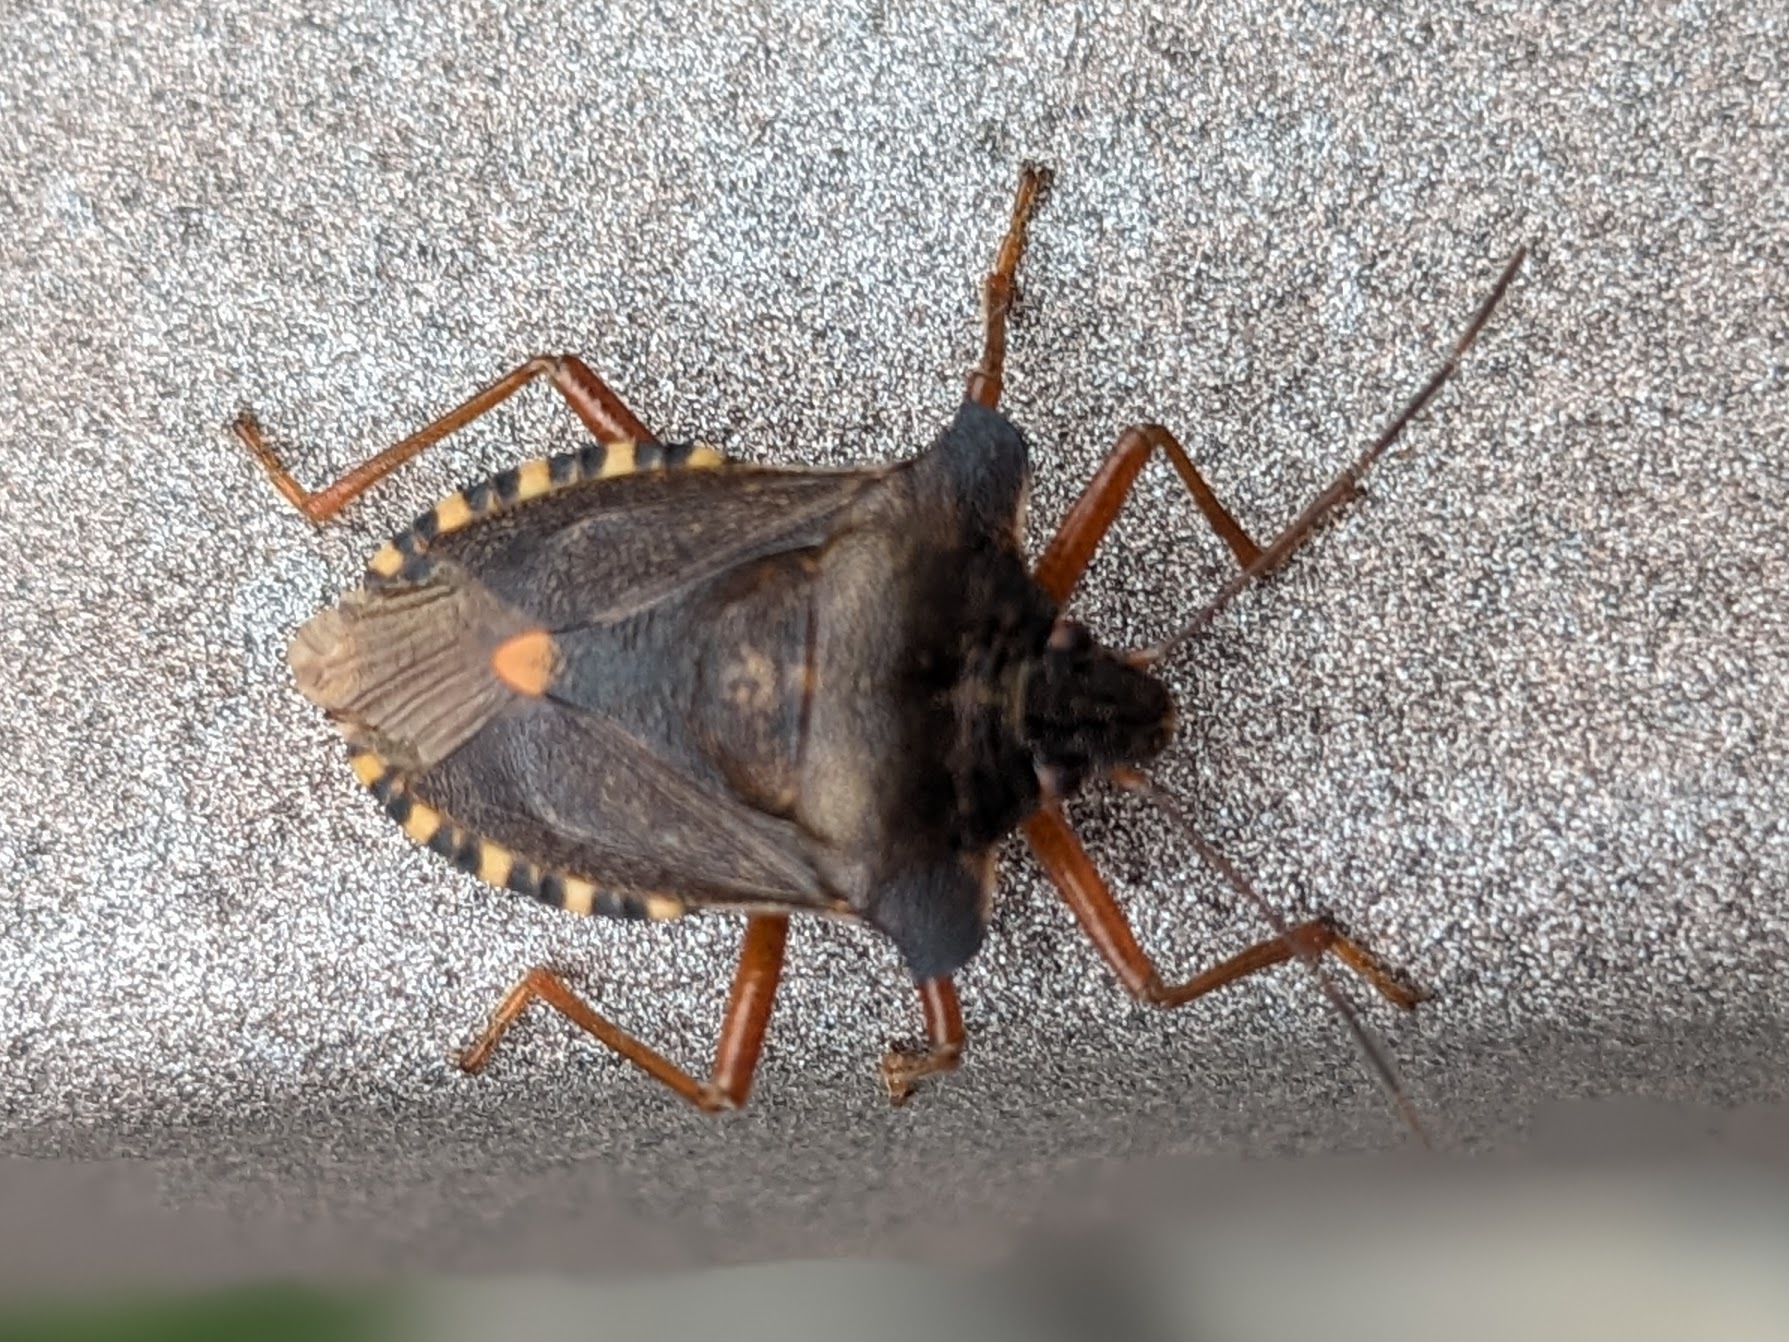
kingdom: Animalia
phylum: Arthropoda
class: Insecta
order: Hemiptera
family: Pentatomidae
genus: Pentatoma
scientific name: Pentatoma rufipes
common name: Forest bug
